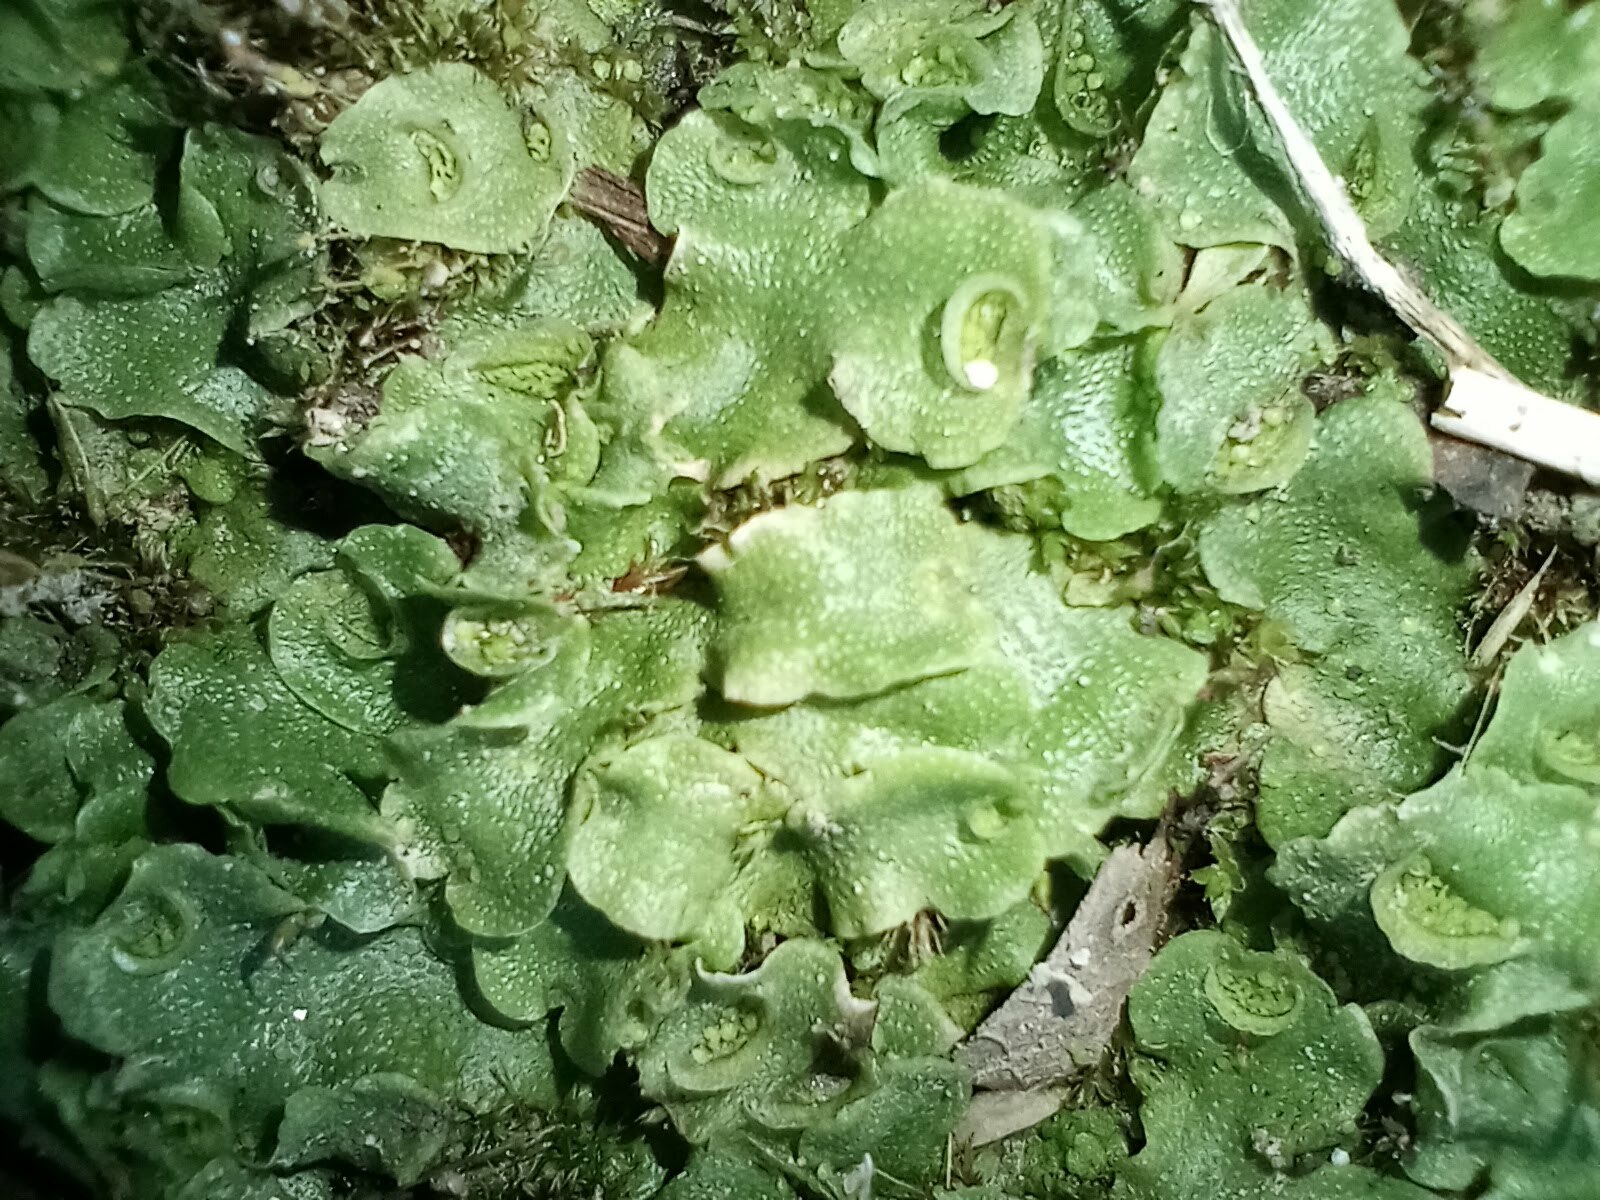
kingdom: Plantae
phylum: Marchantiophyta
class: Marchantiopsida
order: Lunulariales
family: Lunulariaceae
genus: Lunularia
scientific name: Lunularia cruciata
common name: Crescent-cup liverwort
